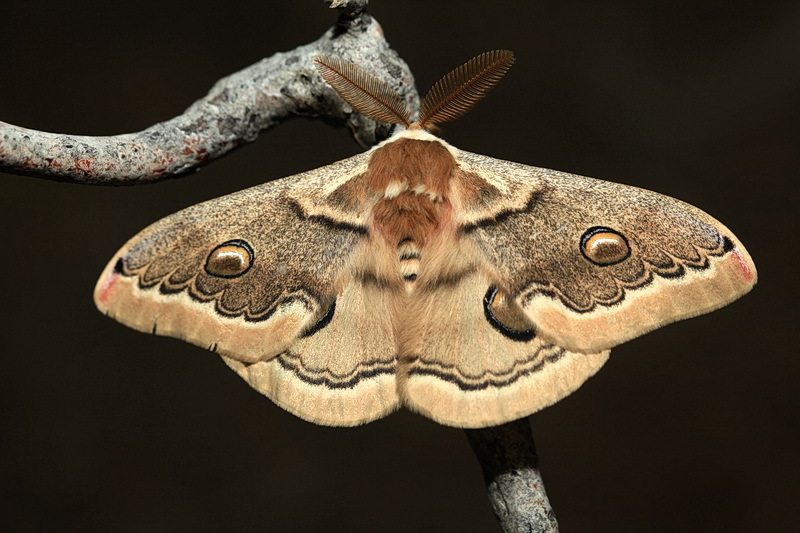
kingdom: Animalia
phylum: Arthropoda
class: Insecta
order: Lepidoptera
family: Saturniidae
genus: Neoris
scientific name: Neoris
